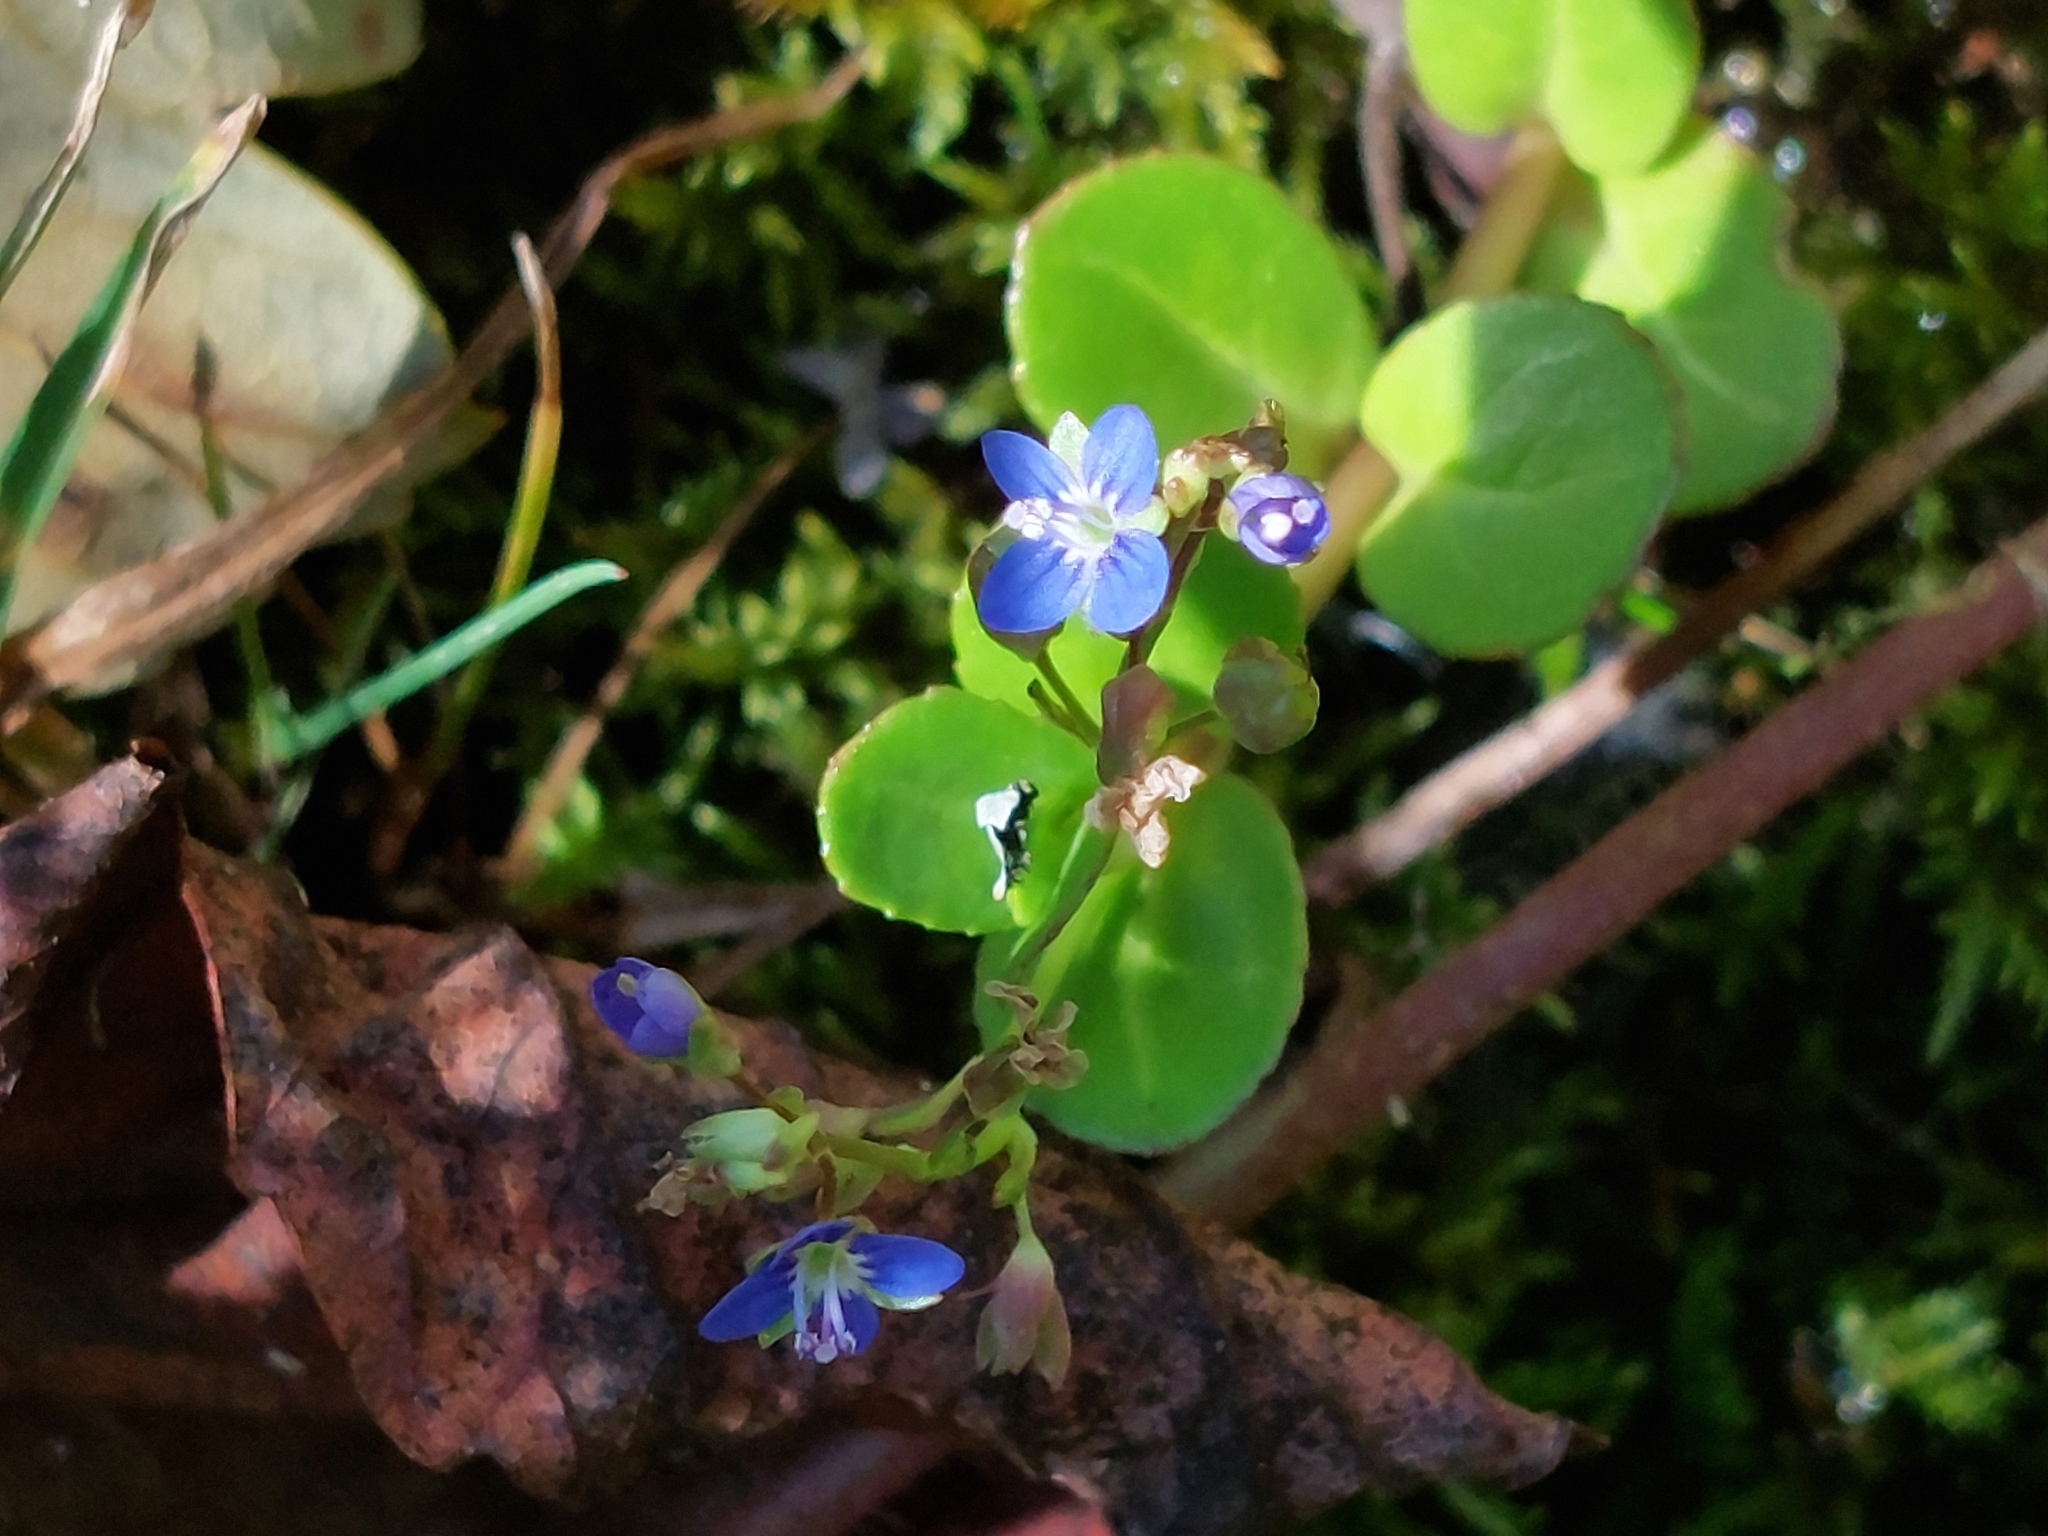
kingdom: Plantae
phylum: Tracheophyta
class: Magnoliopsida
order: Lamiales
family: Plantaginaceae
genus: Veronica
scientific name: Veronica beccabunga
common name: Brooklime
